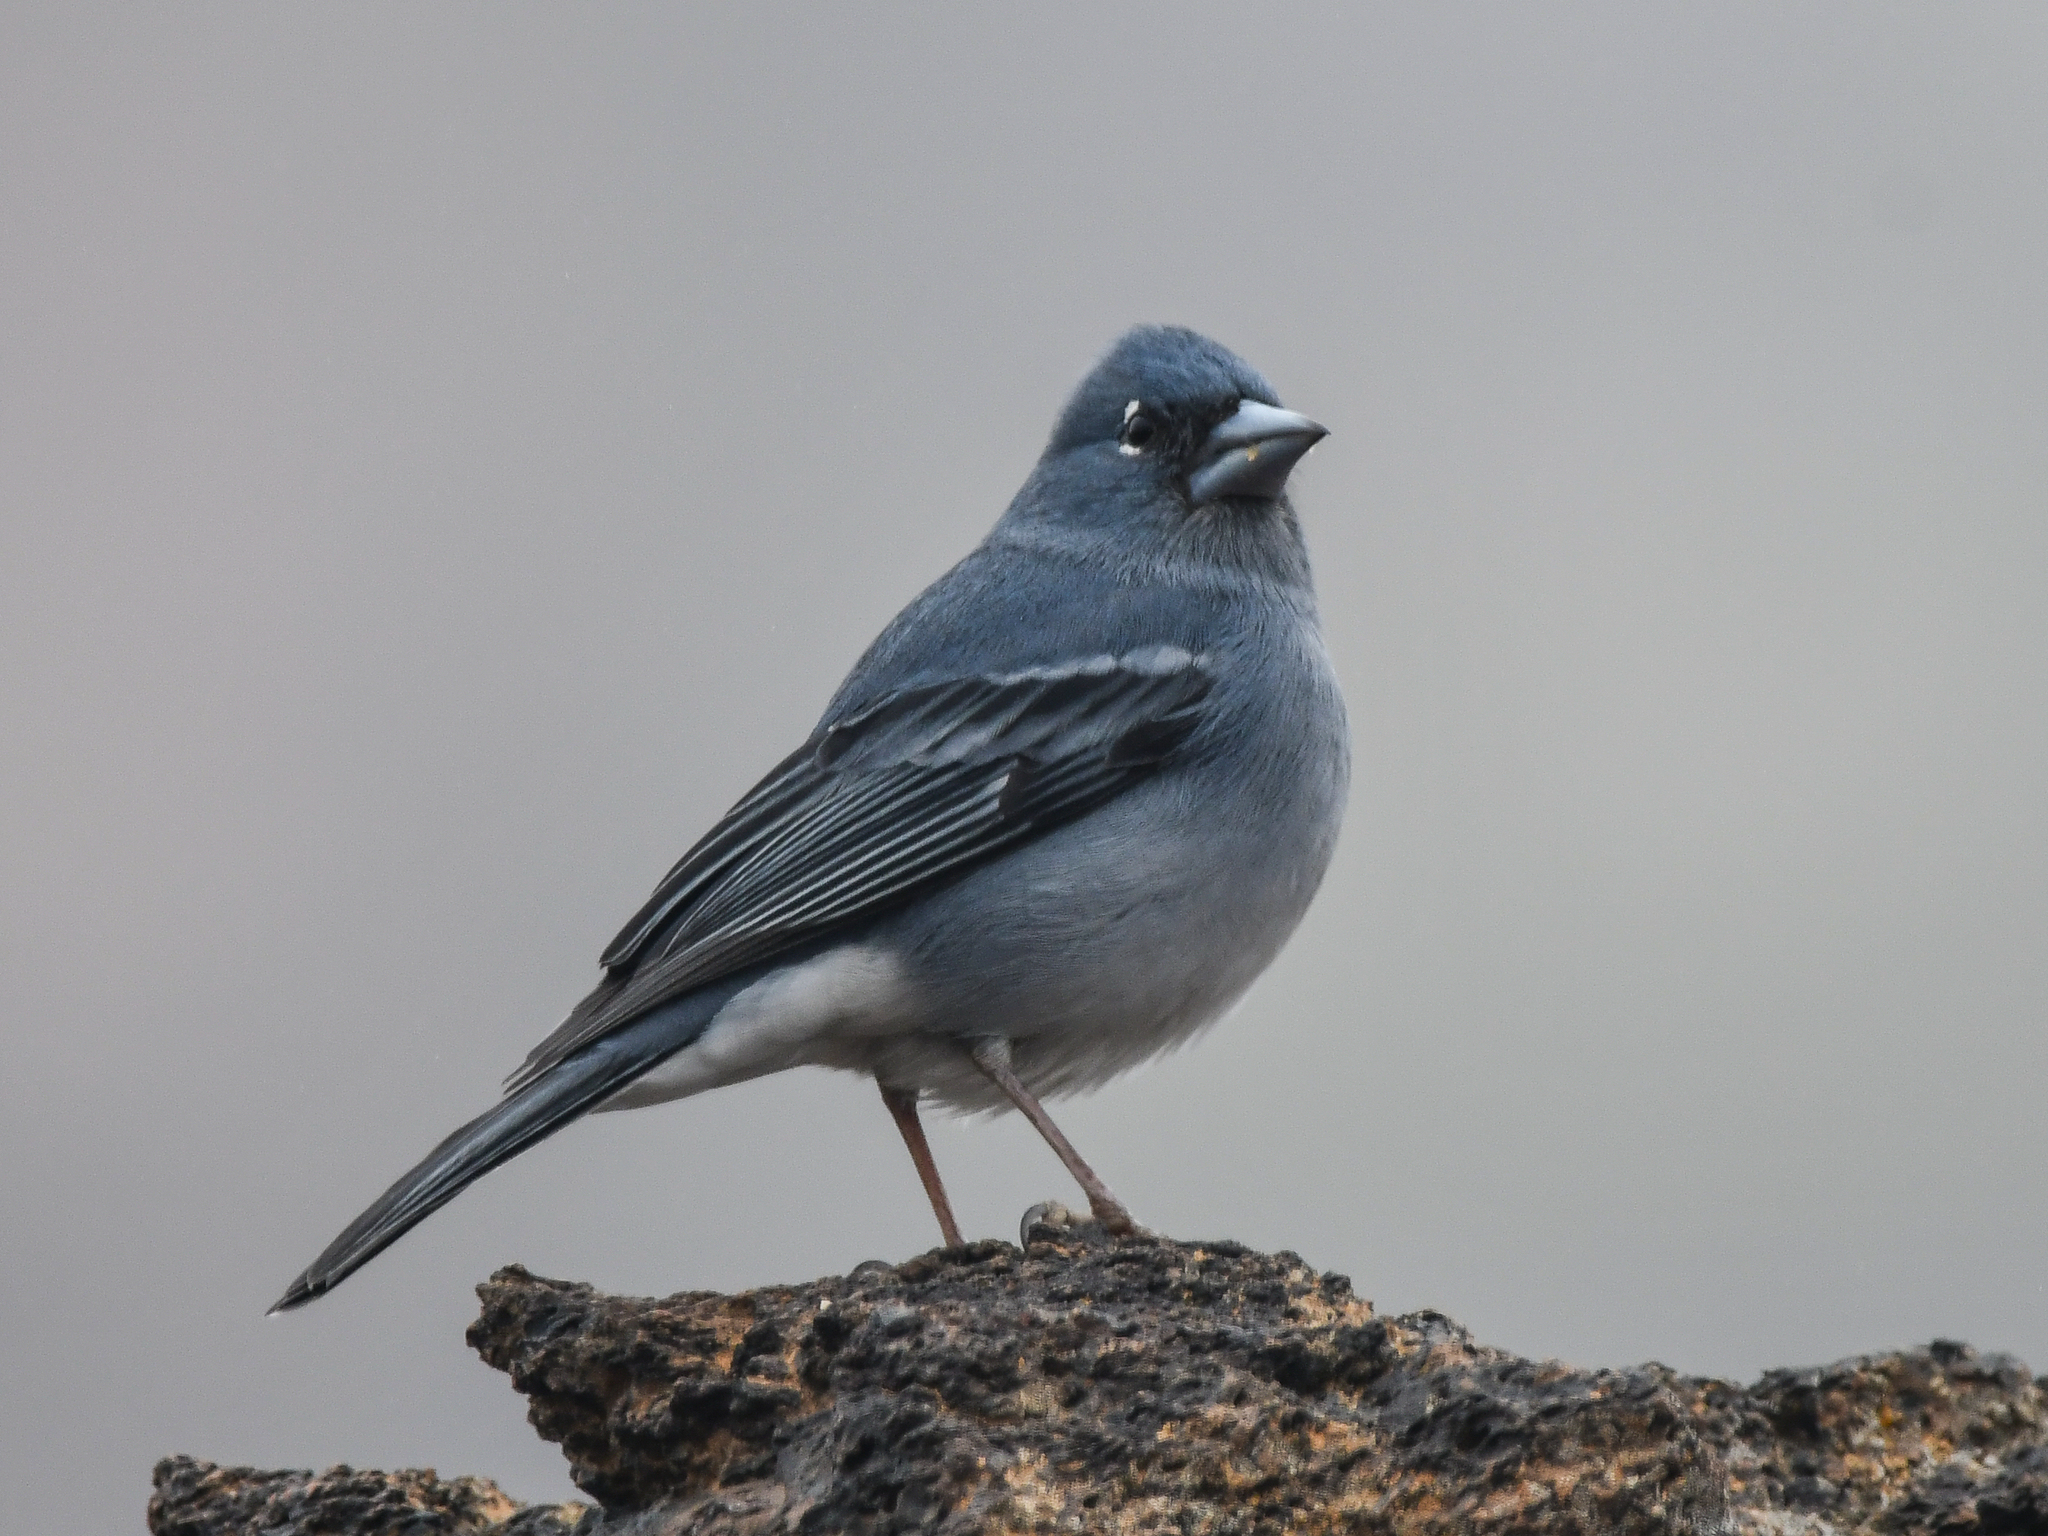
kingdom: Animalia
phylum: Chordata
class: Aves
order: Passeriformes
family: Fringillidae
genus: Fringilla
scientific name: Fringilla teydea
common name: Blue chaffinch
